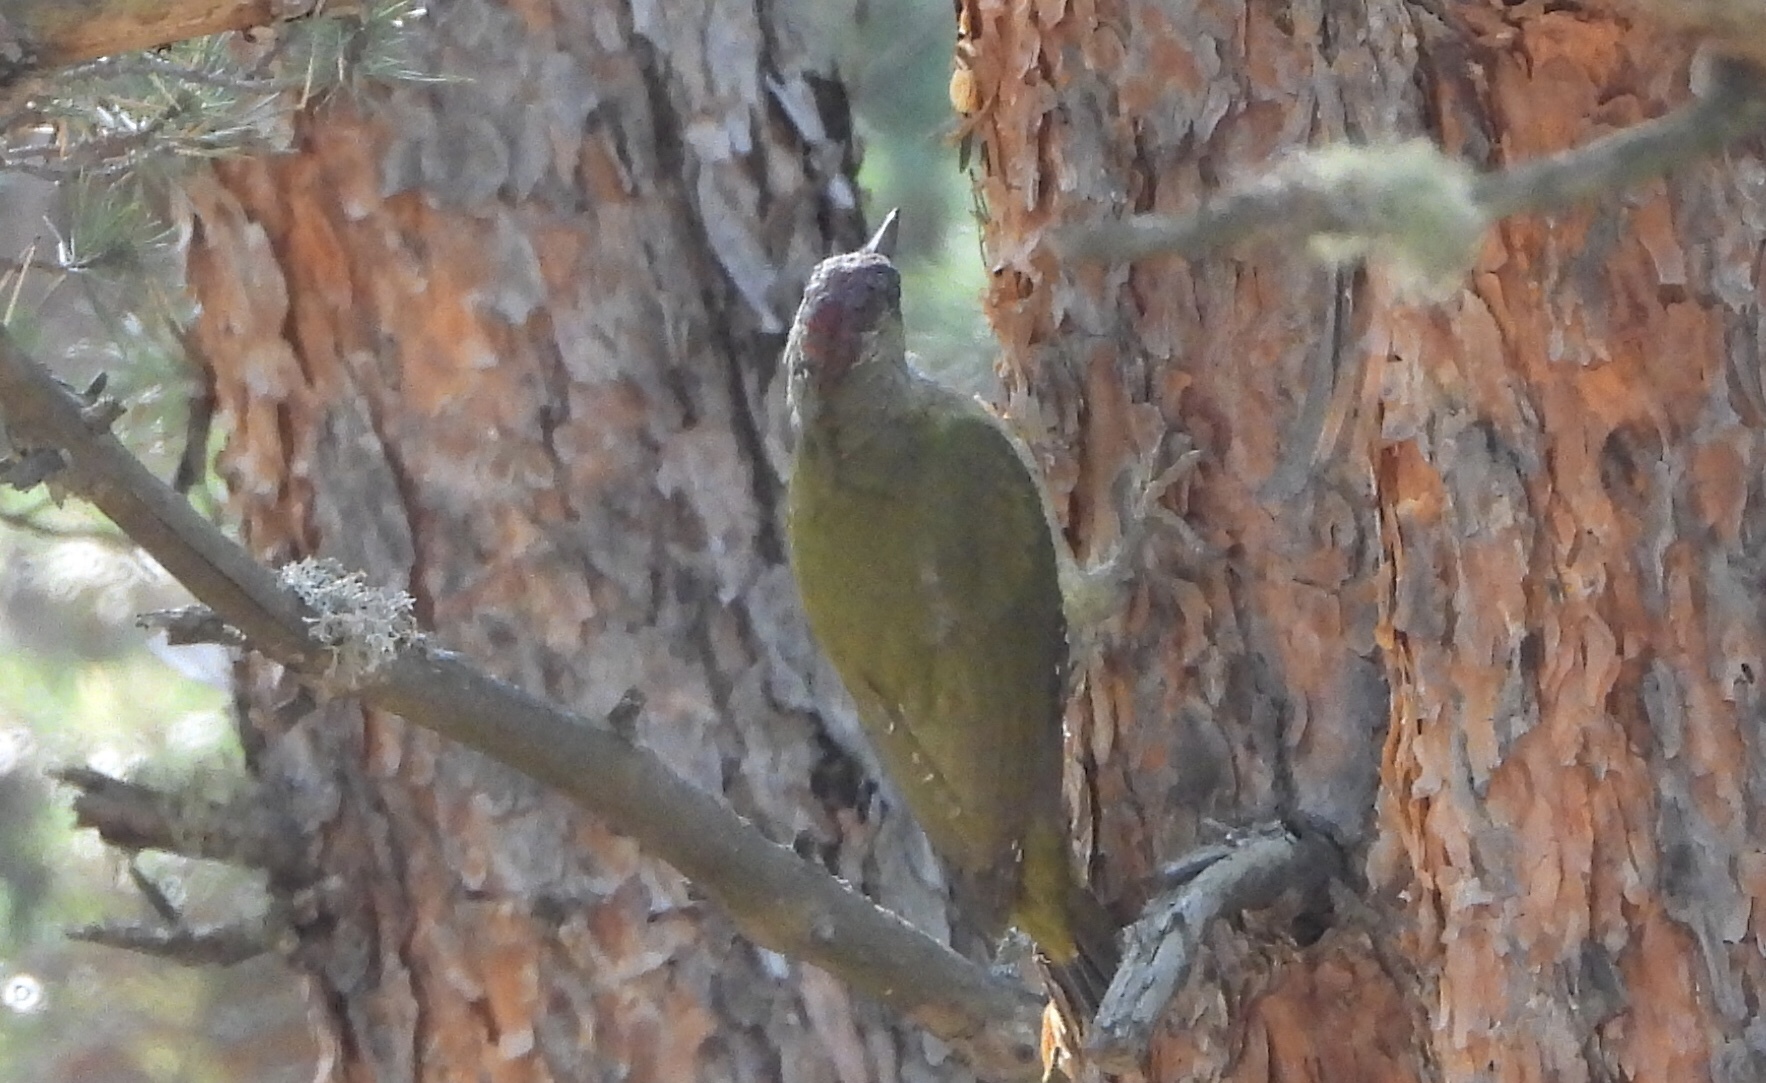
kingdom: Animalia
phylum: Chordata
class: Aves
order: Piciformes
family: Picidae
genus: Picus
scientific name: Picus viridis
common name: European green woodpecker
